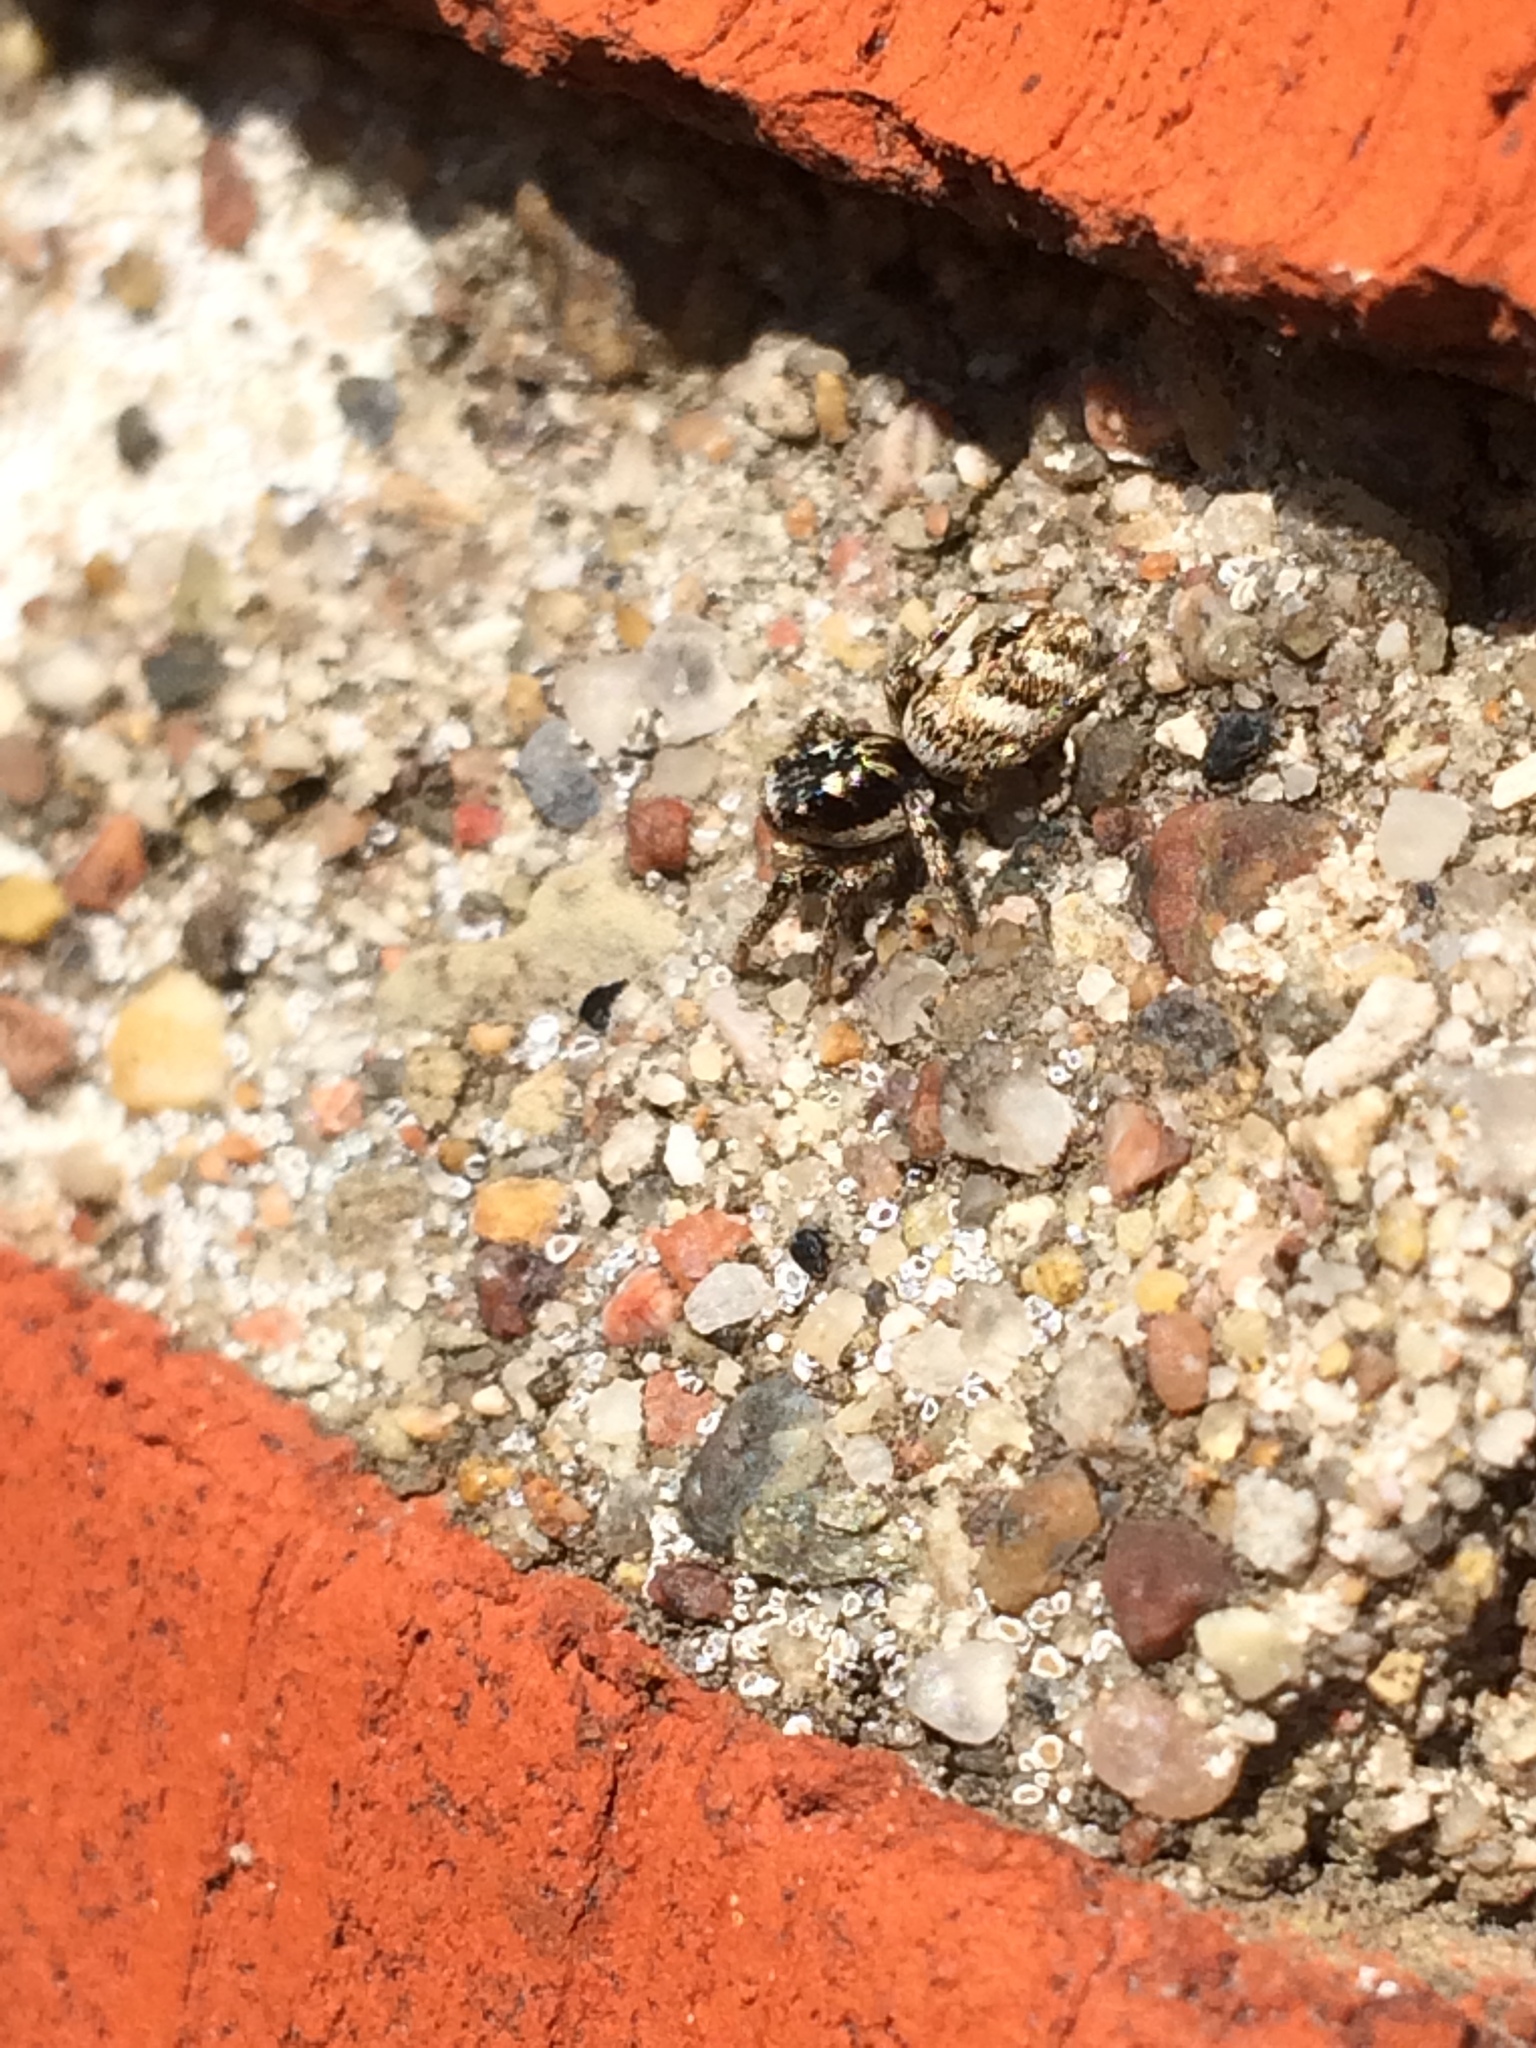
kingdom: Animalia
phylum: Arthropoda
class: Arachnida
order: Araneae
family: Salticidae
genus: Salticus
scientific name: Salticus scenicus
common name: Zebra jumper
